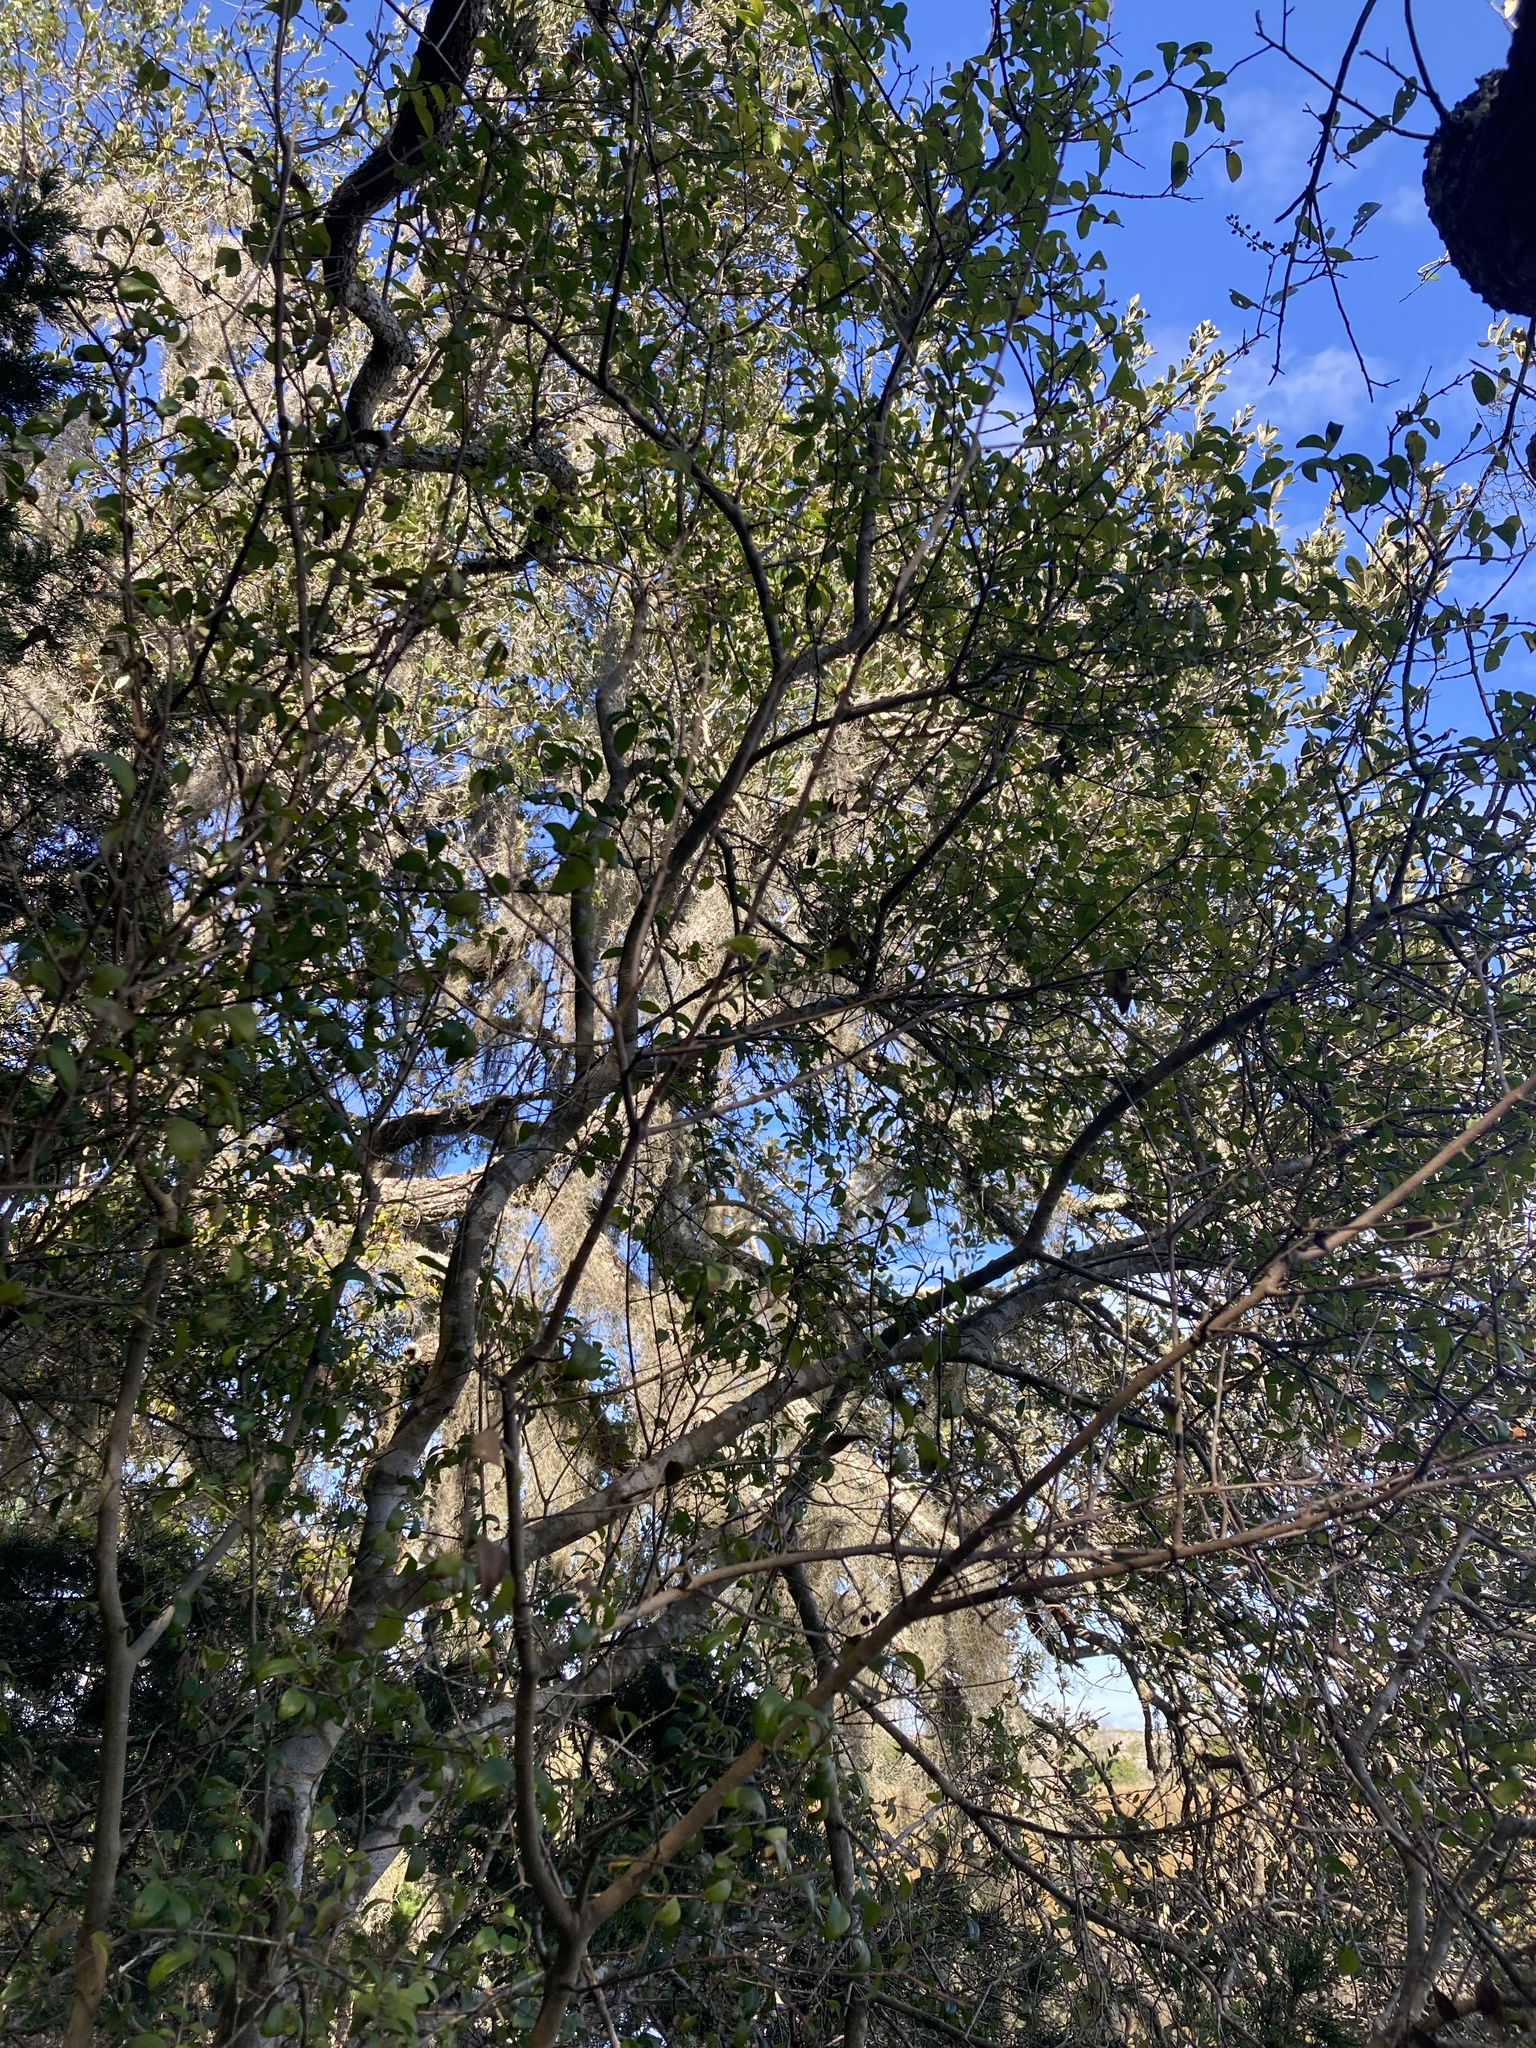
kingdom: Plantae
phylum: Tracheophyta
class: Magnoliopsida
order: Aquifoliales
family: Aquifoliaceae
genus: Ilex
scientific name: Ilex vomitoria
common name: Yaupon holly
